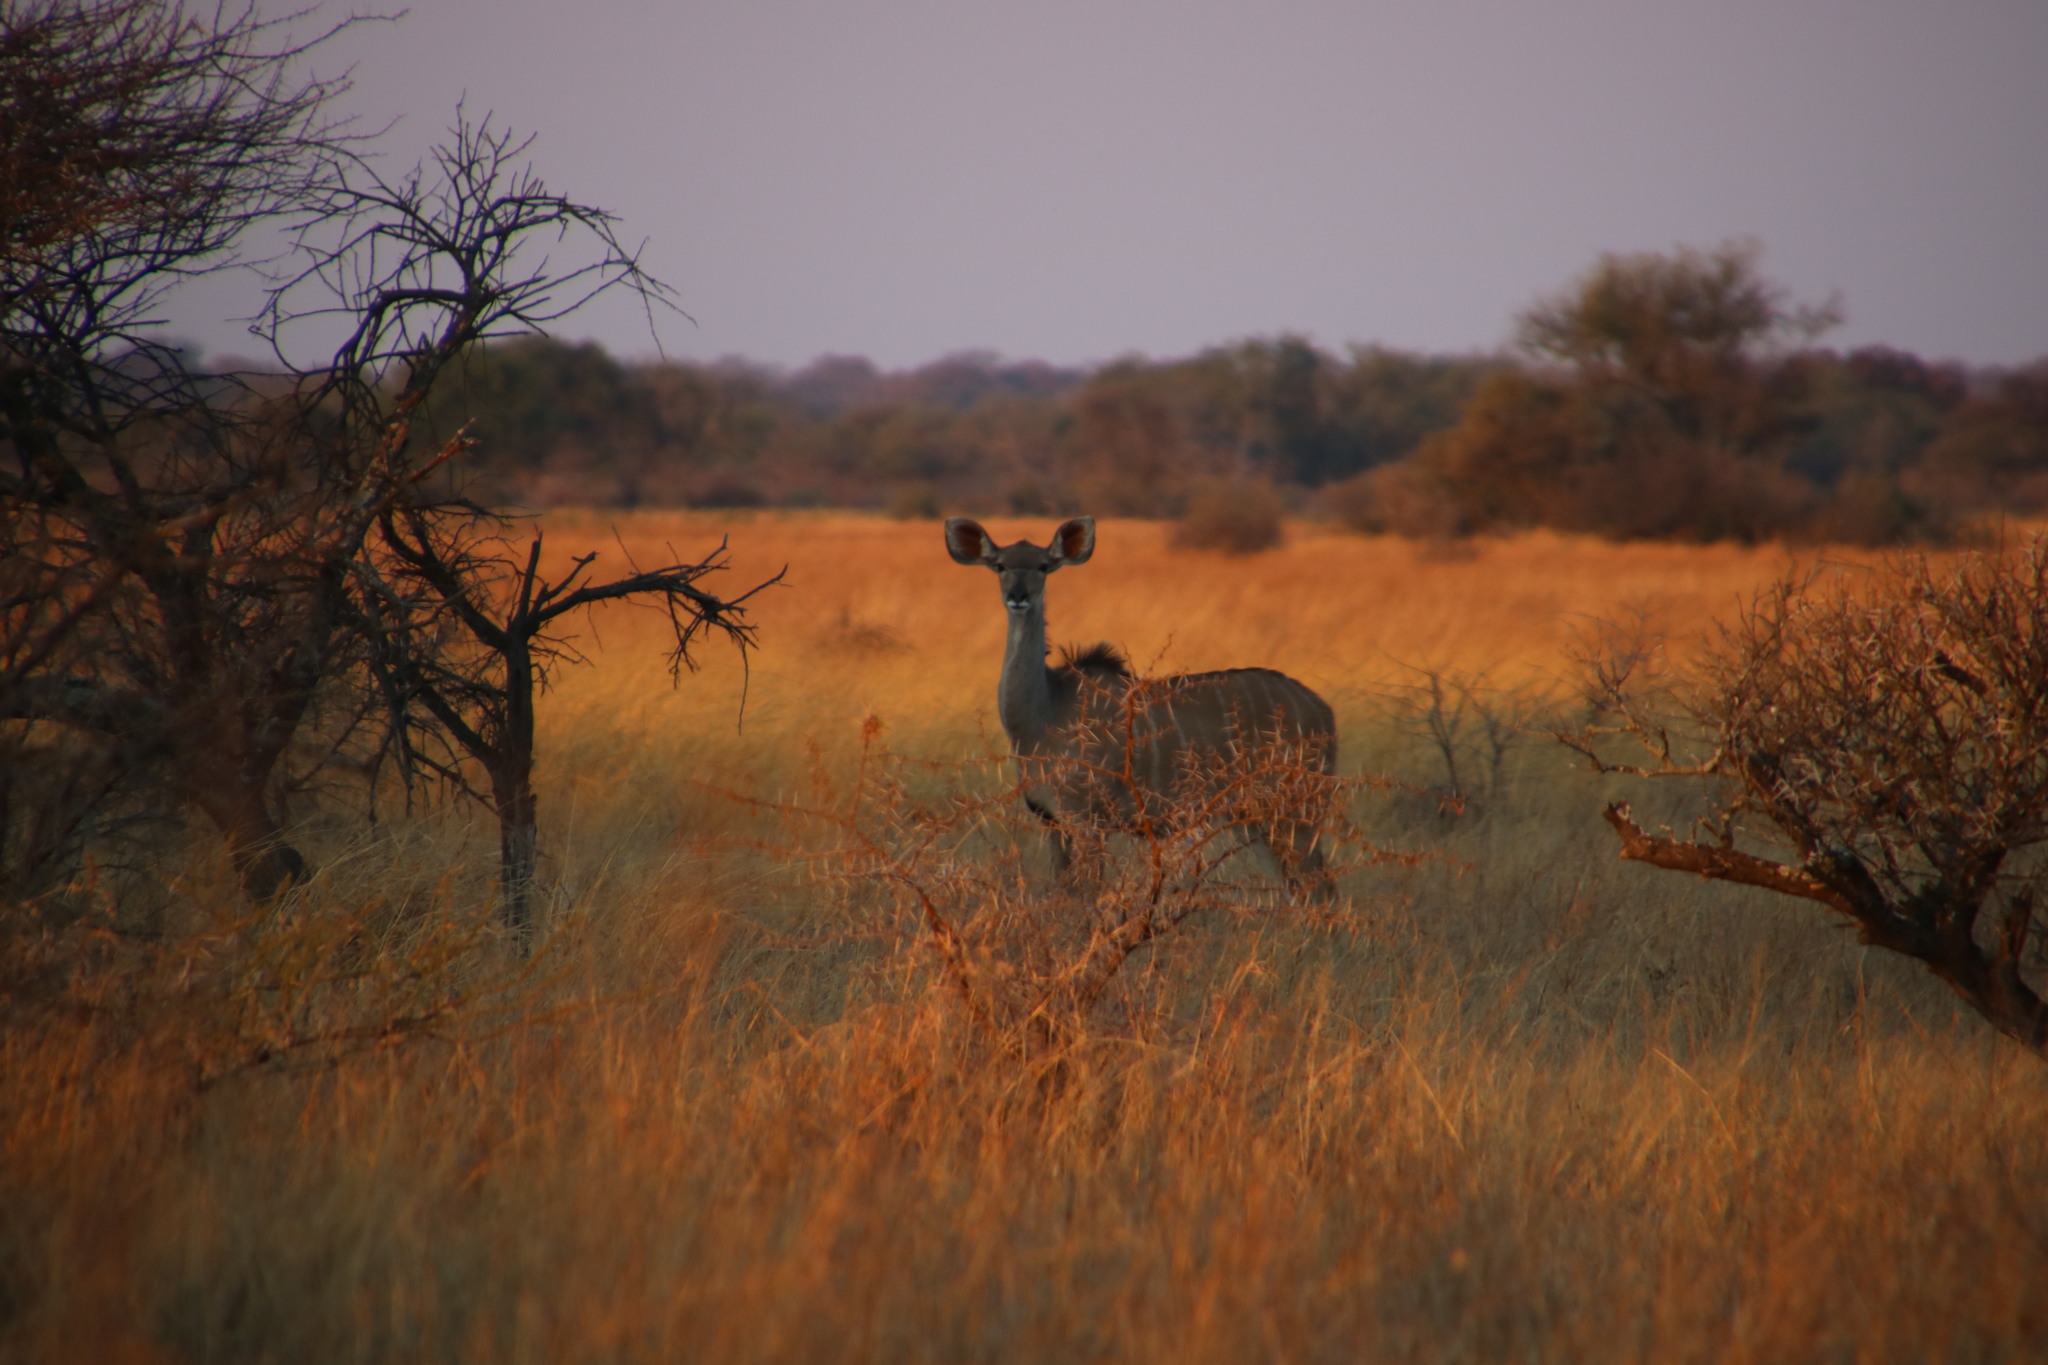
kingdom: Animalia
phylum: Chordata
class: Mammalia
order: Artiodactyla
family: Bovidae
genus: Tragelaphus
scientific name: Tragelaphus strepsiceros
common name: Greater kudu
